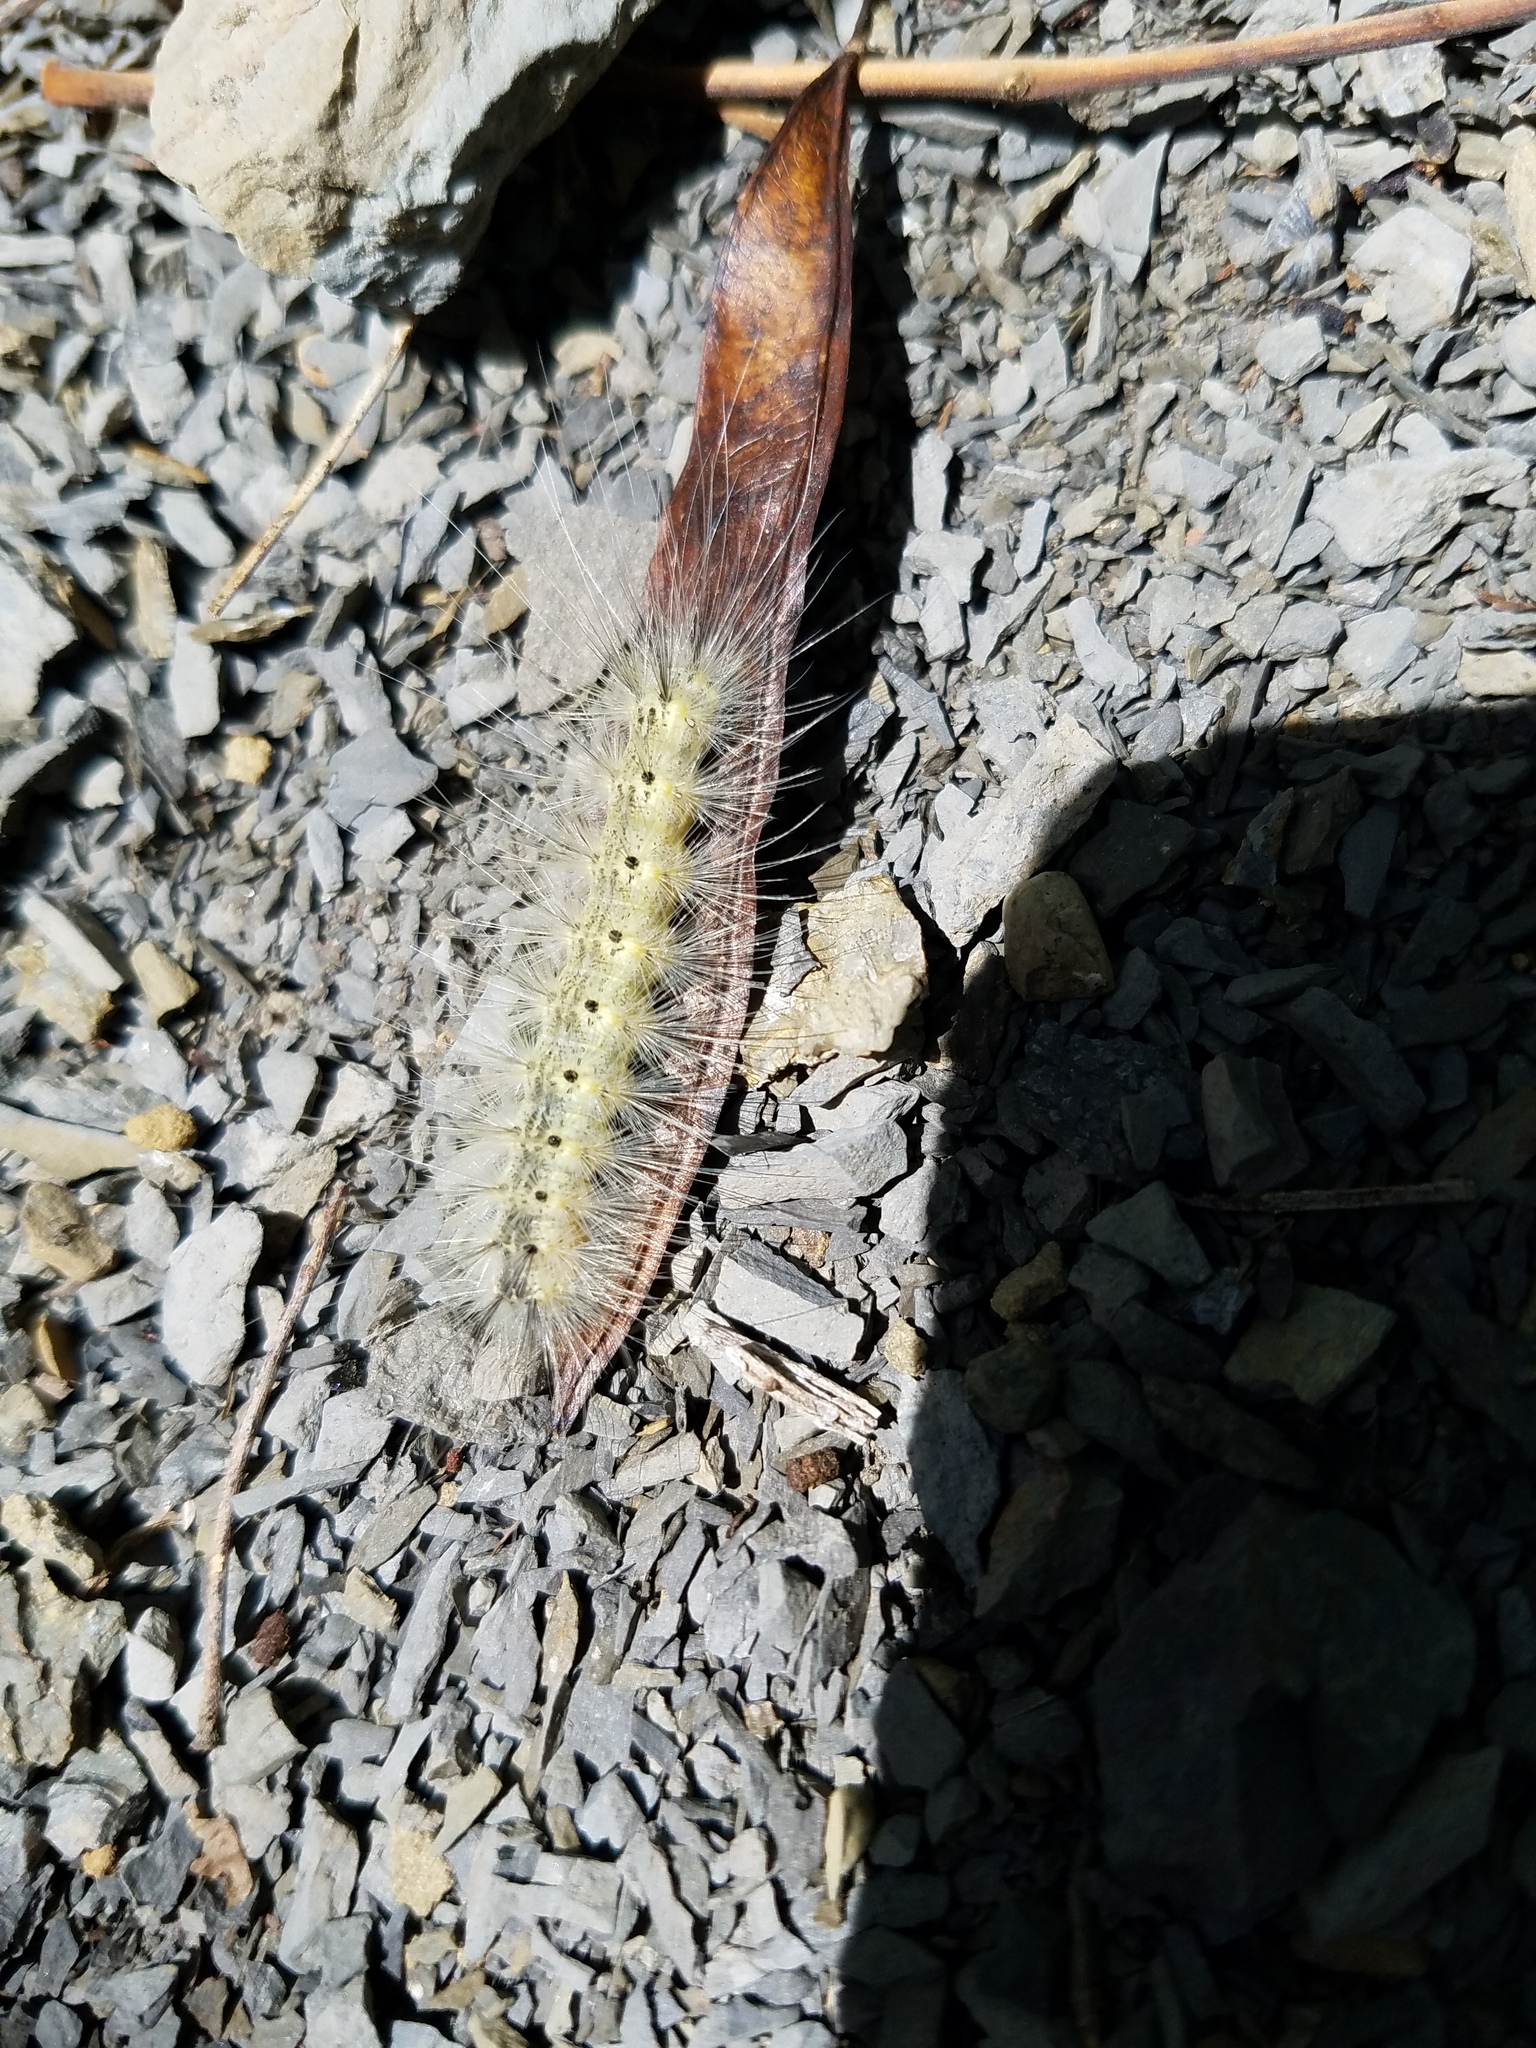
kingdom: Animalia
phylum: Arthropoda
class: Insecta
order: Lepidoptera
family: Erebidae
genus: Hyphantria
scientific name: Hyphantria cunea
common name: American white moth
